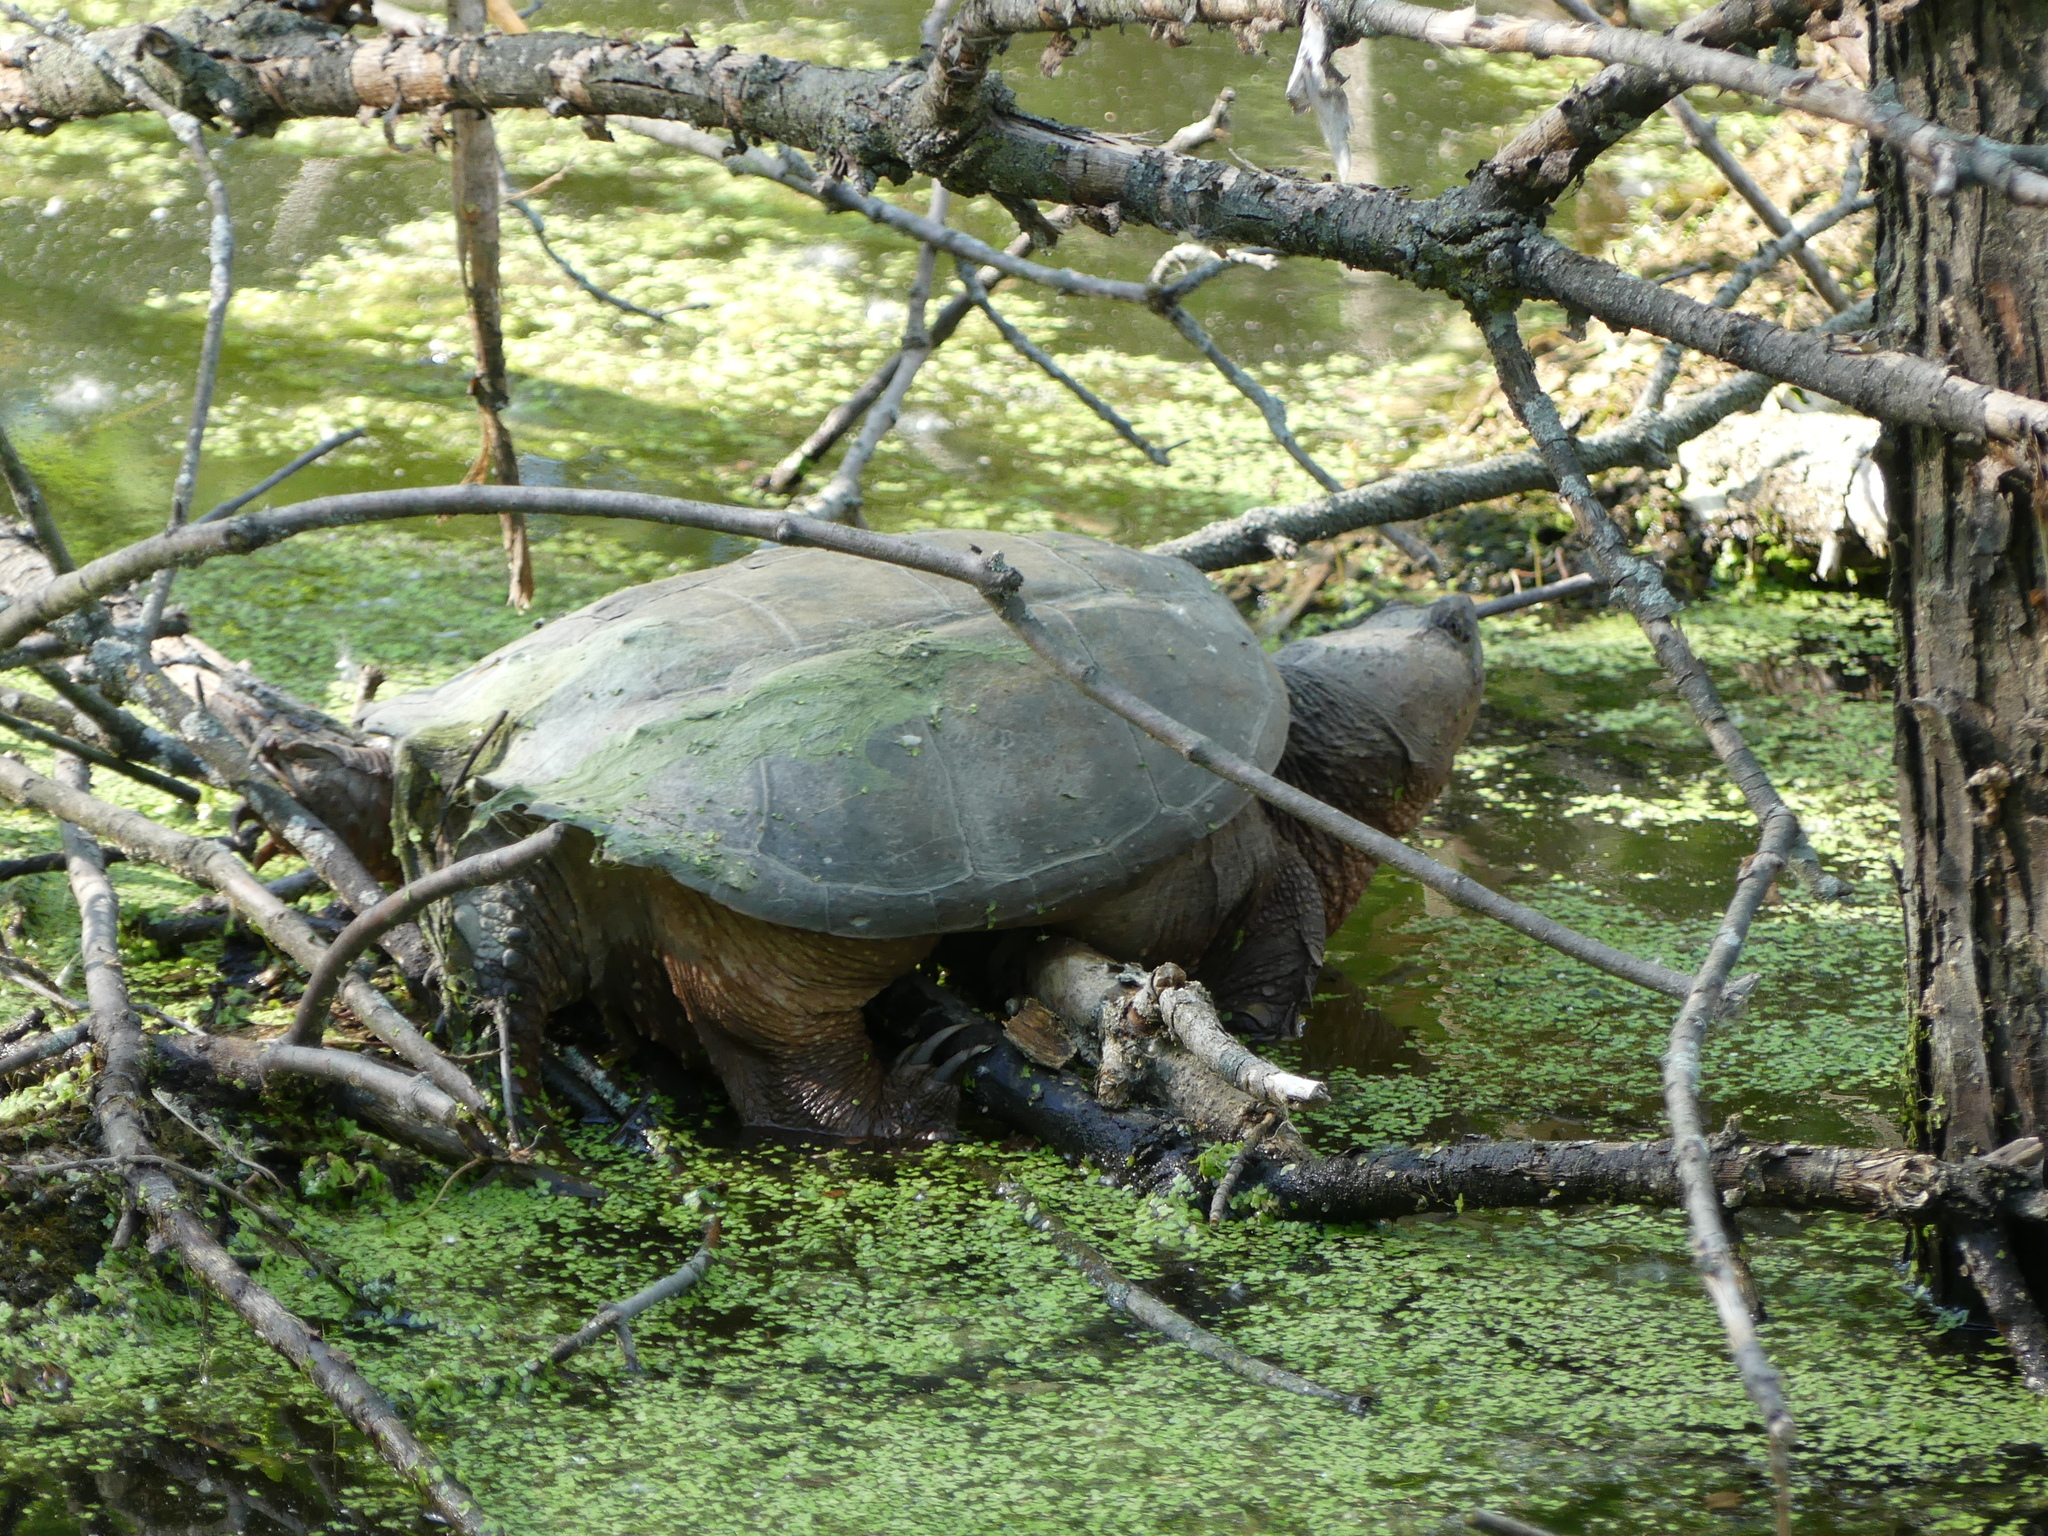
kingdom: Animalia
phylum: Chordata
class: Testudines
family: Chelydridae
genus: Chelydra
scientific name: Chelydra serpentina
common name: Common snapping turtle
